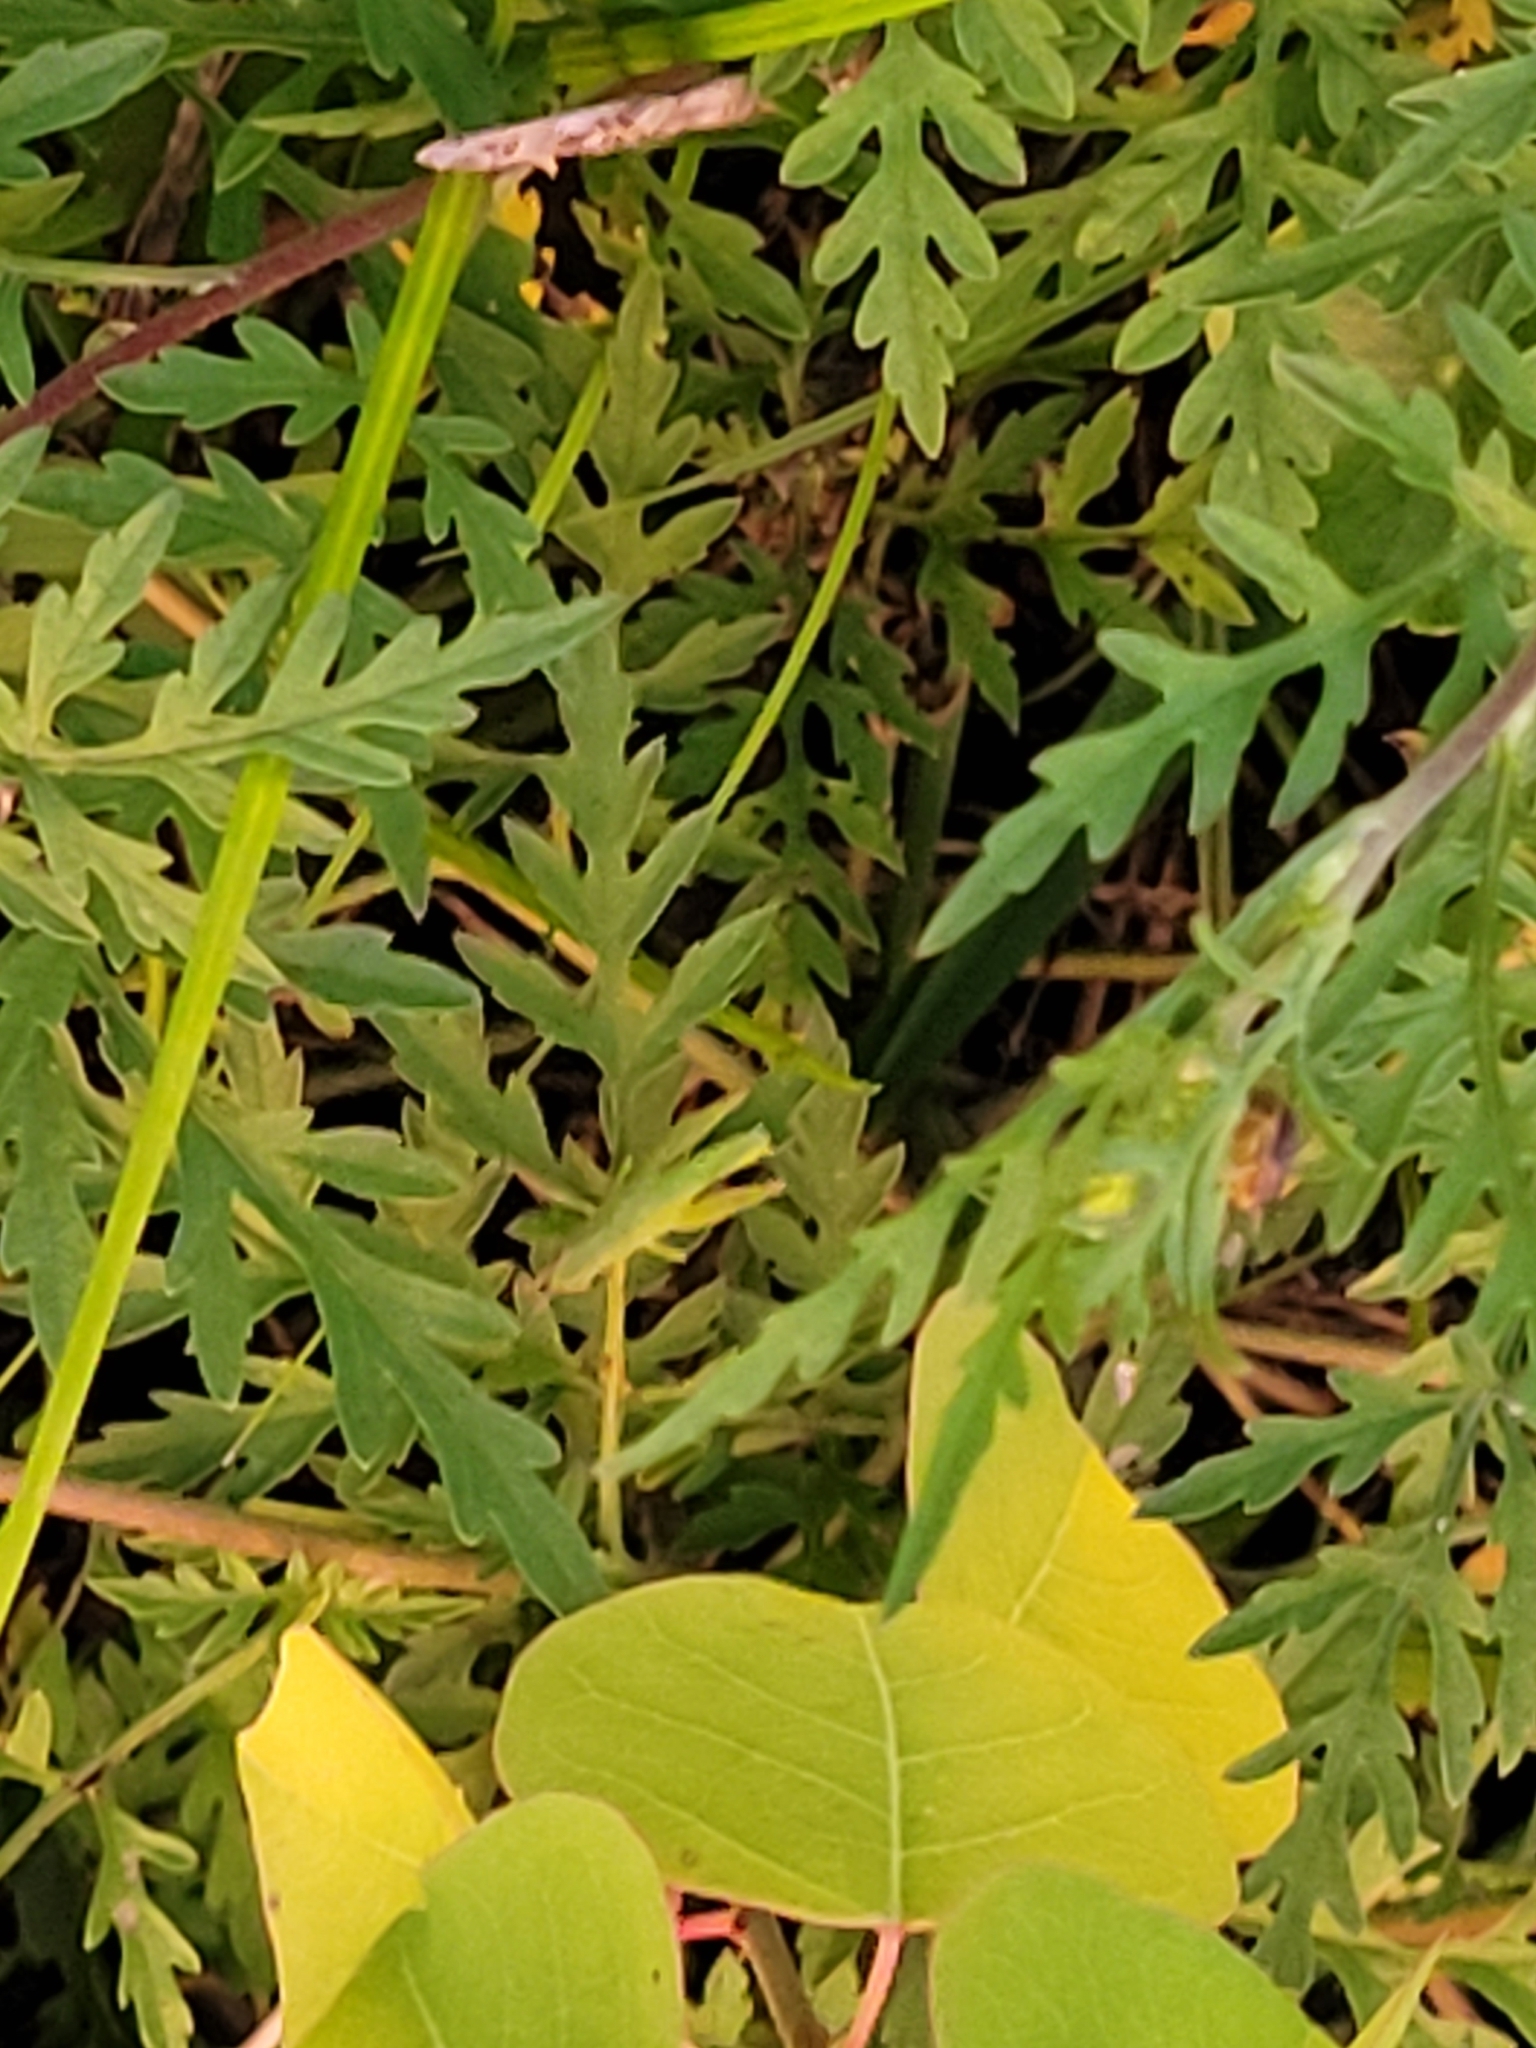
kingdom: Animalia
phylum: Arthropoda
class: Insecta
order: Orthoptera
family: Acrididae
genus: Dichromorpha
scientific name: Dichromorpha viridis
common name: Short-winged green grasshopper
